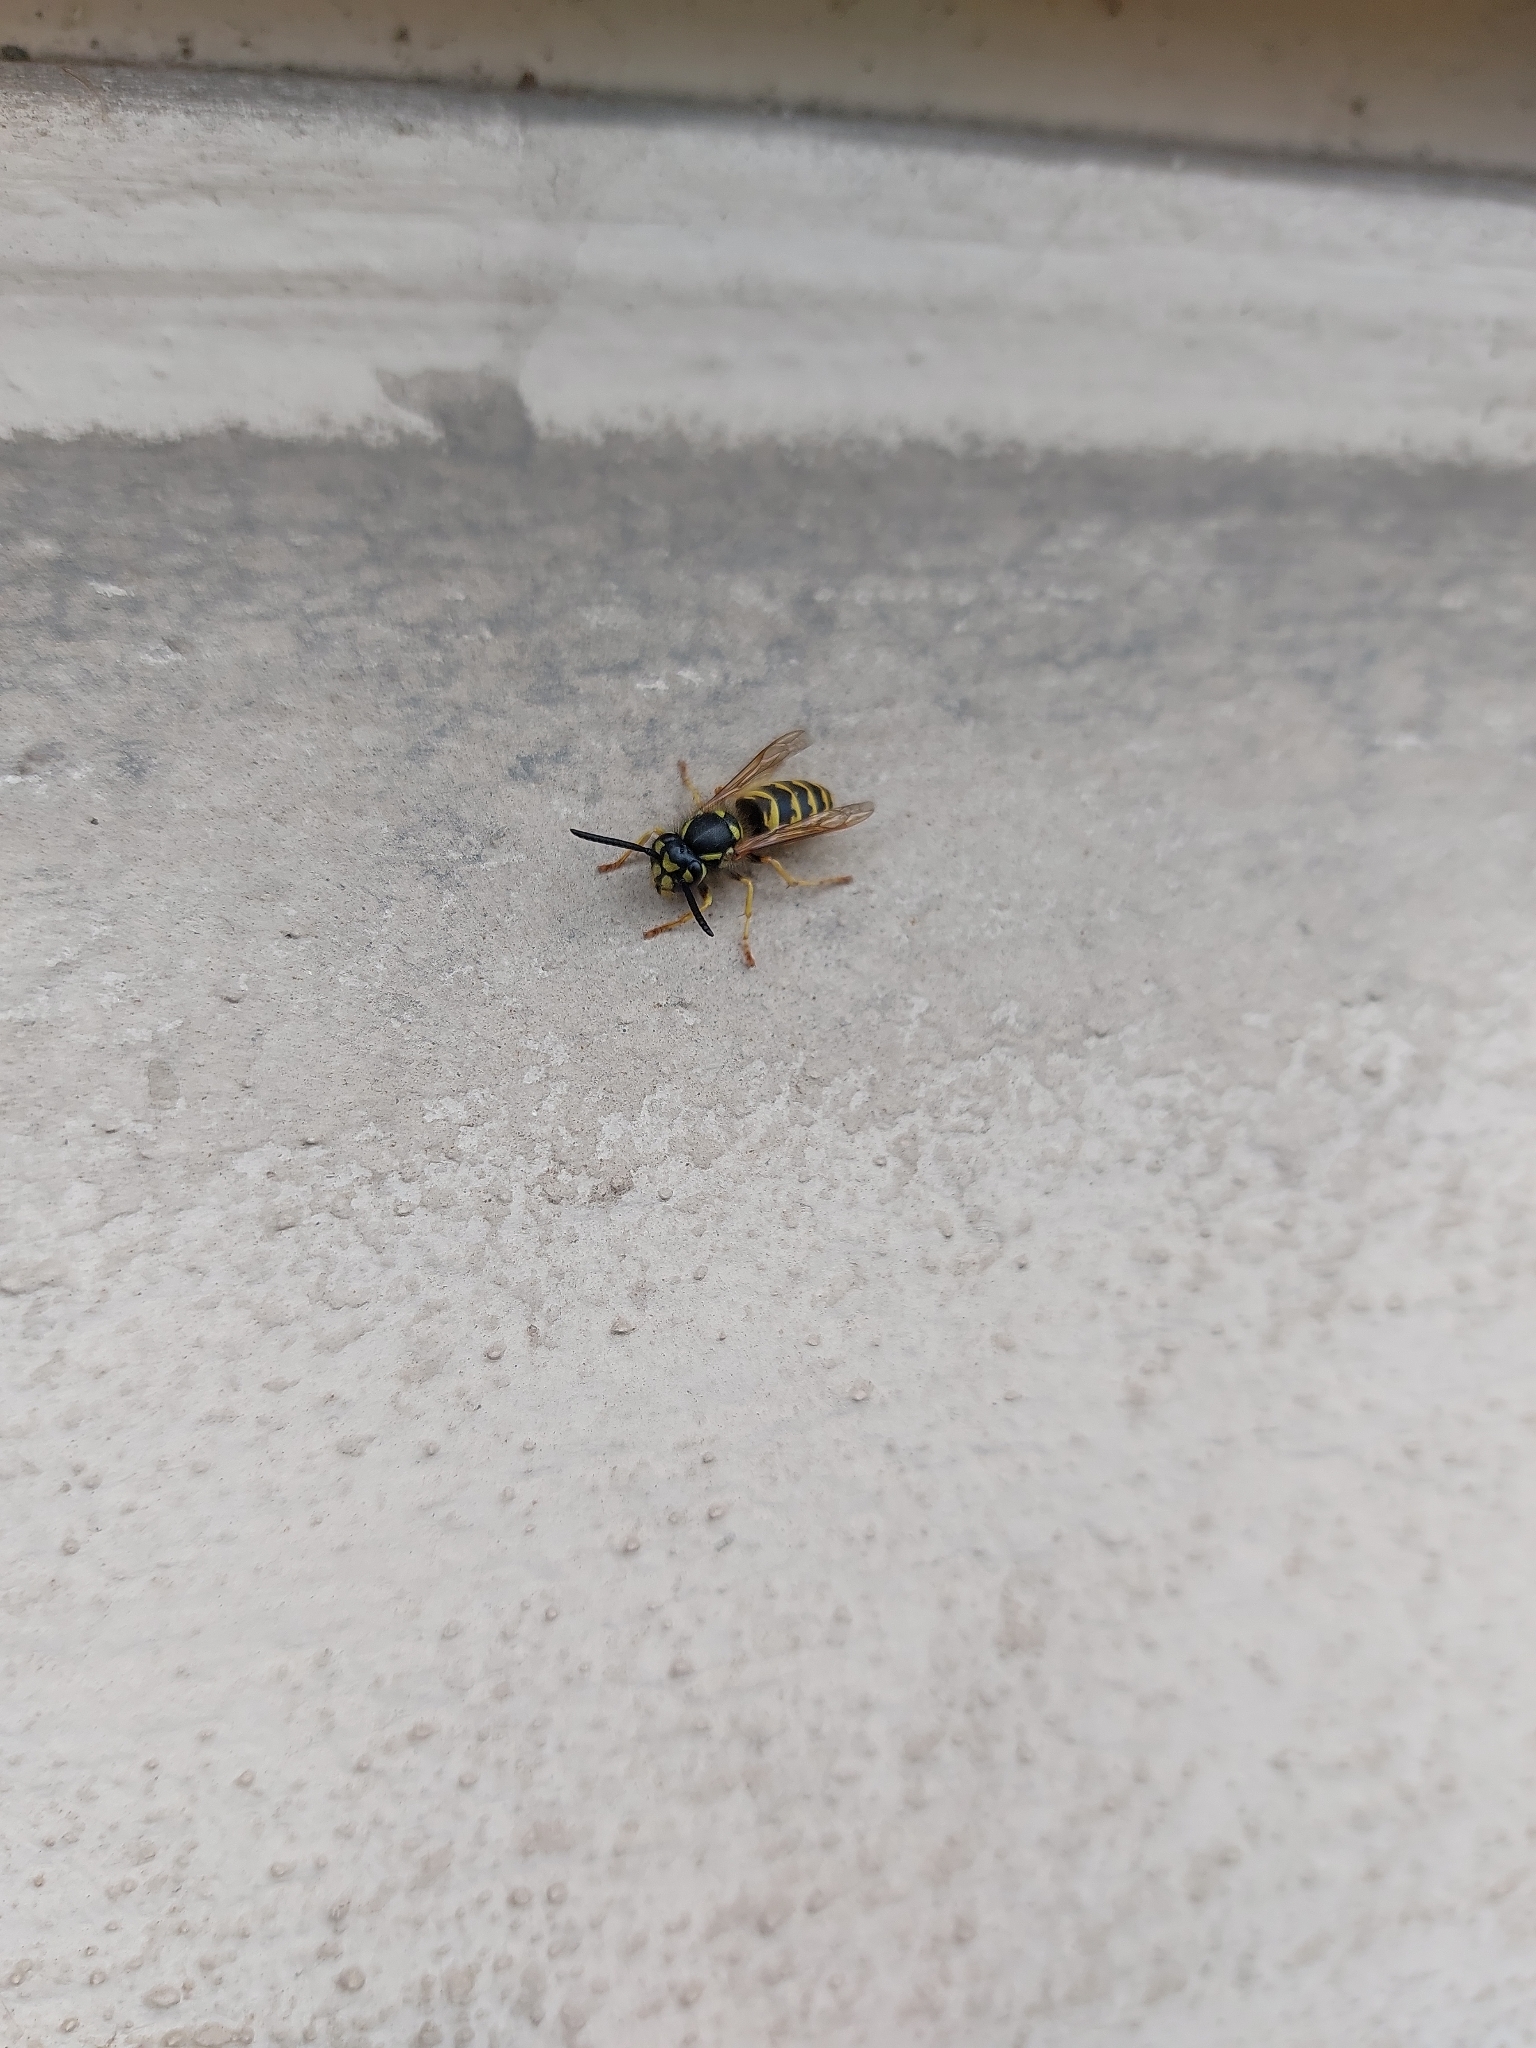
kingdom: Animalia
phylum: Arthropoda
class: Insecta
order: Hymenoptera
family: Vespidae
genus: Vespula
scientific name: Vespula vulgaris
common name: Common wasp
